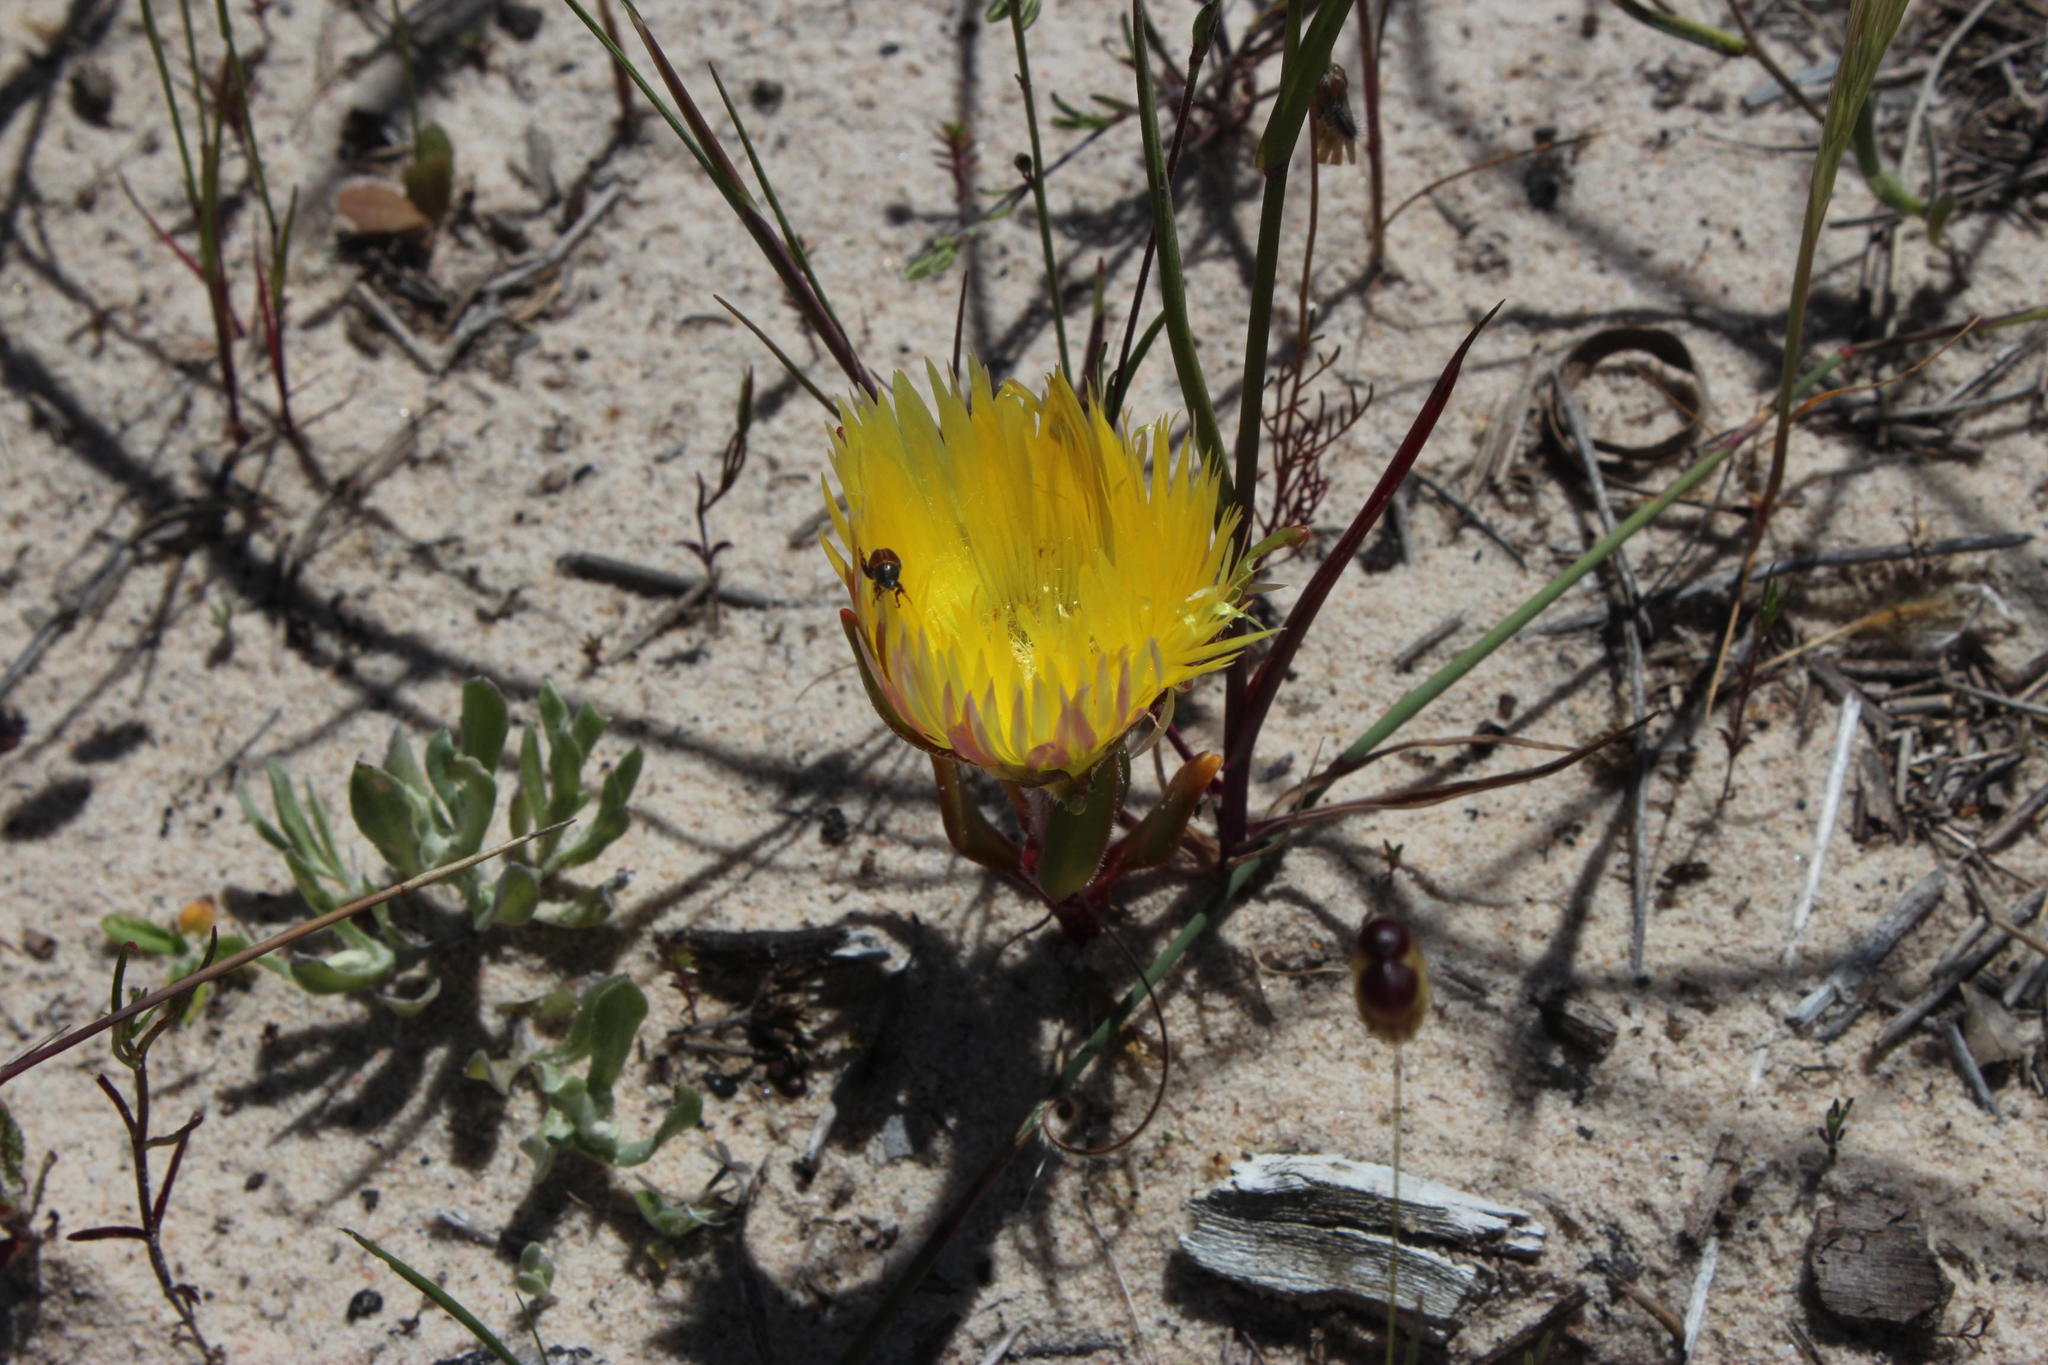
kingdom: Plantae
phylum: Tracheophyta
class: Magnoliopsida
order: Caryophyllales
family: Aizoaceae
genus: Carpanthea
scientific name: Carpanthea pomeridiana
